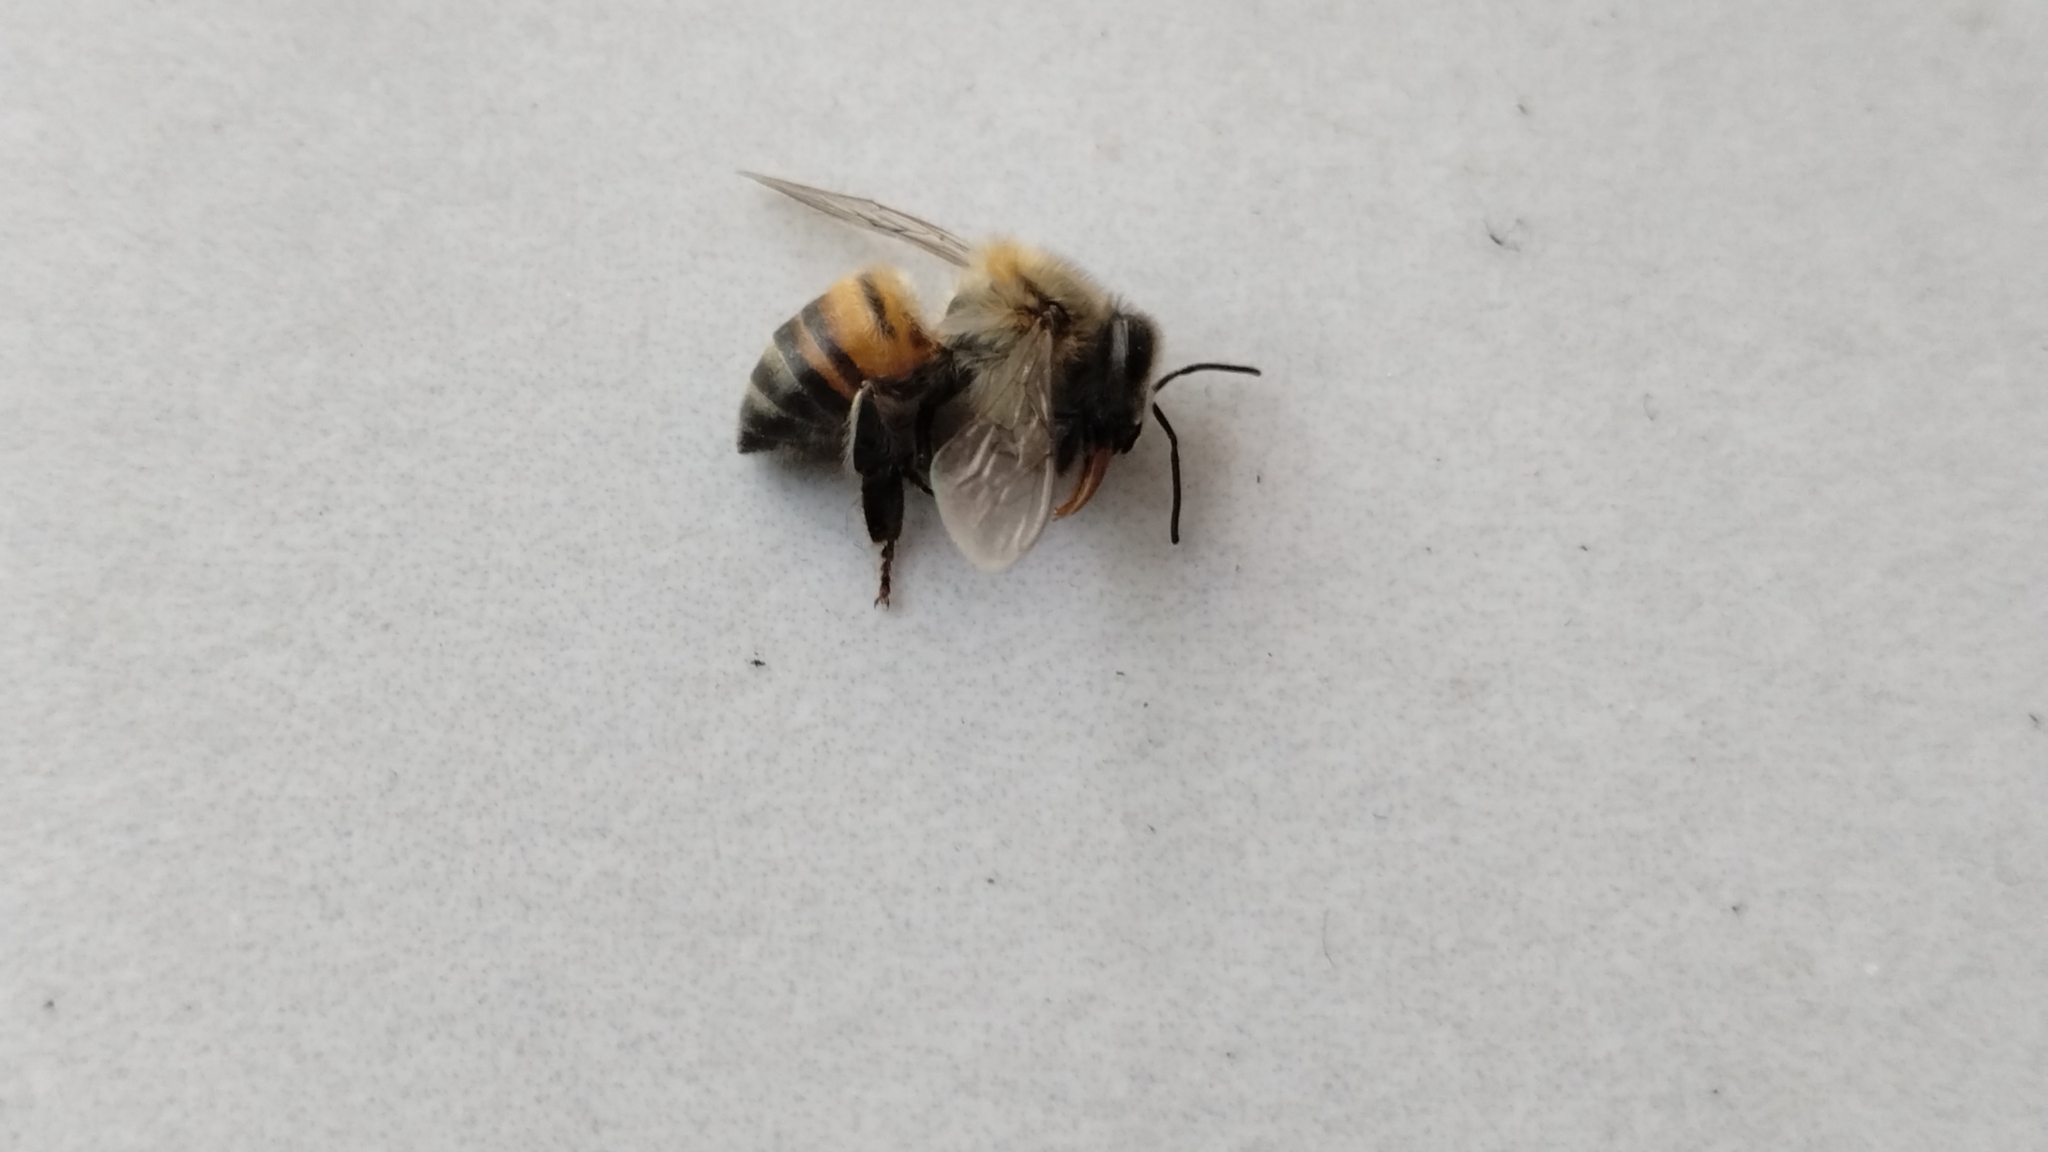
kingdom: Animalia
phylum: Arthropoda
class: Insecta
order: Hymenoptera
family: Apidae
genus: Apis
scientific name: Apis mellifera
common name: Honey bee
